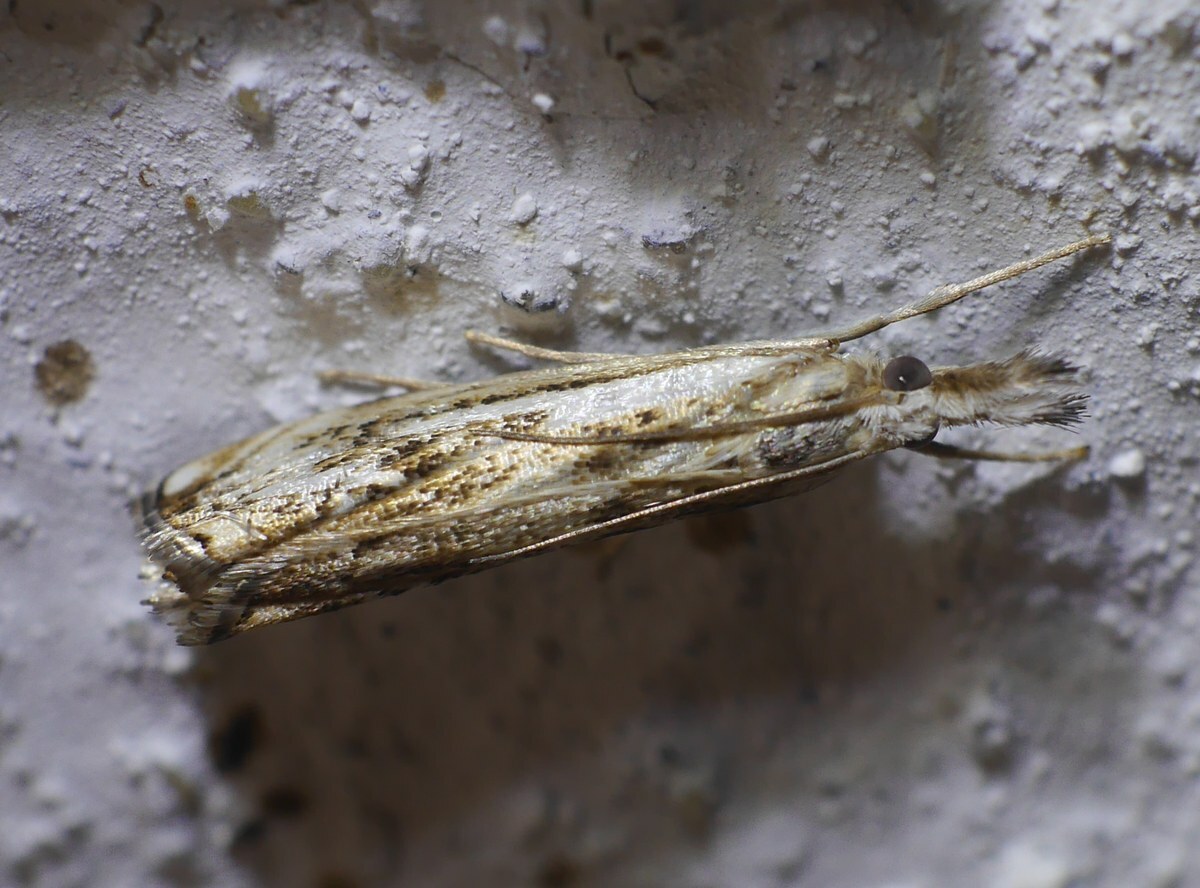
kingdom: Animalia
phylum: Arthropoda
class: Insecta
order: Lepidoptera
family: Crambidae
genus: Catoptria
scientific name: Catoptria falsella
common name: Chequered grass-veneer
